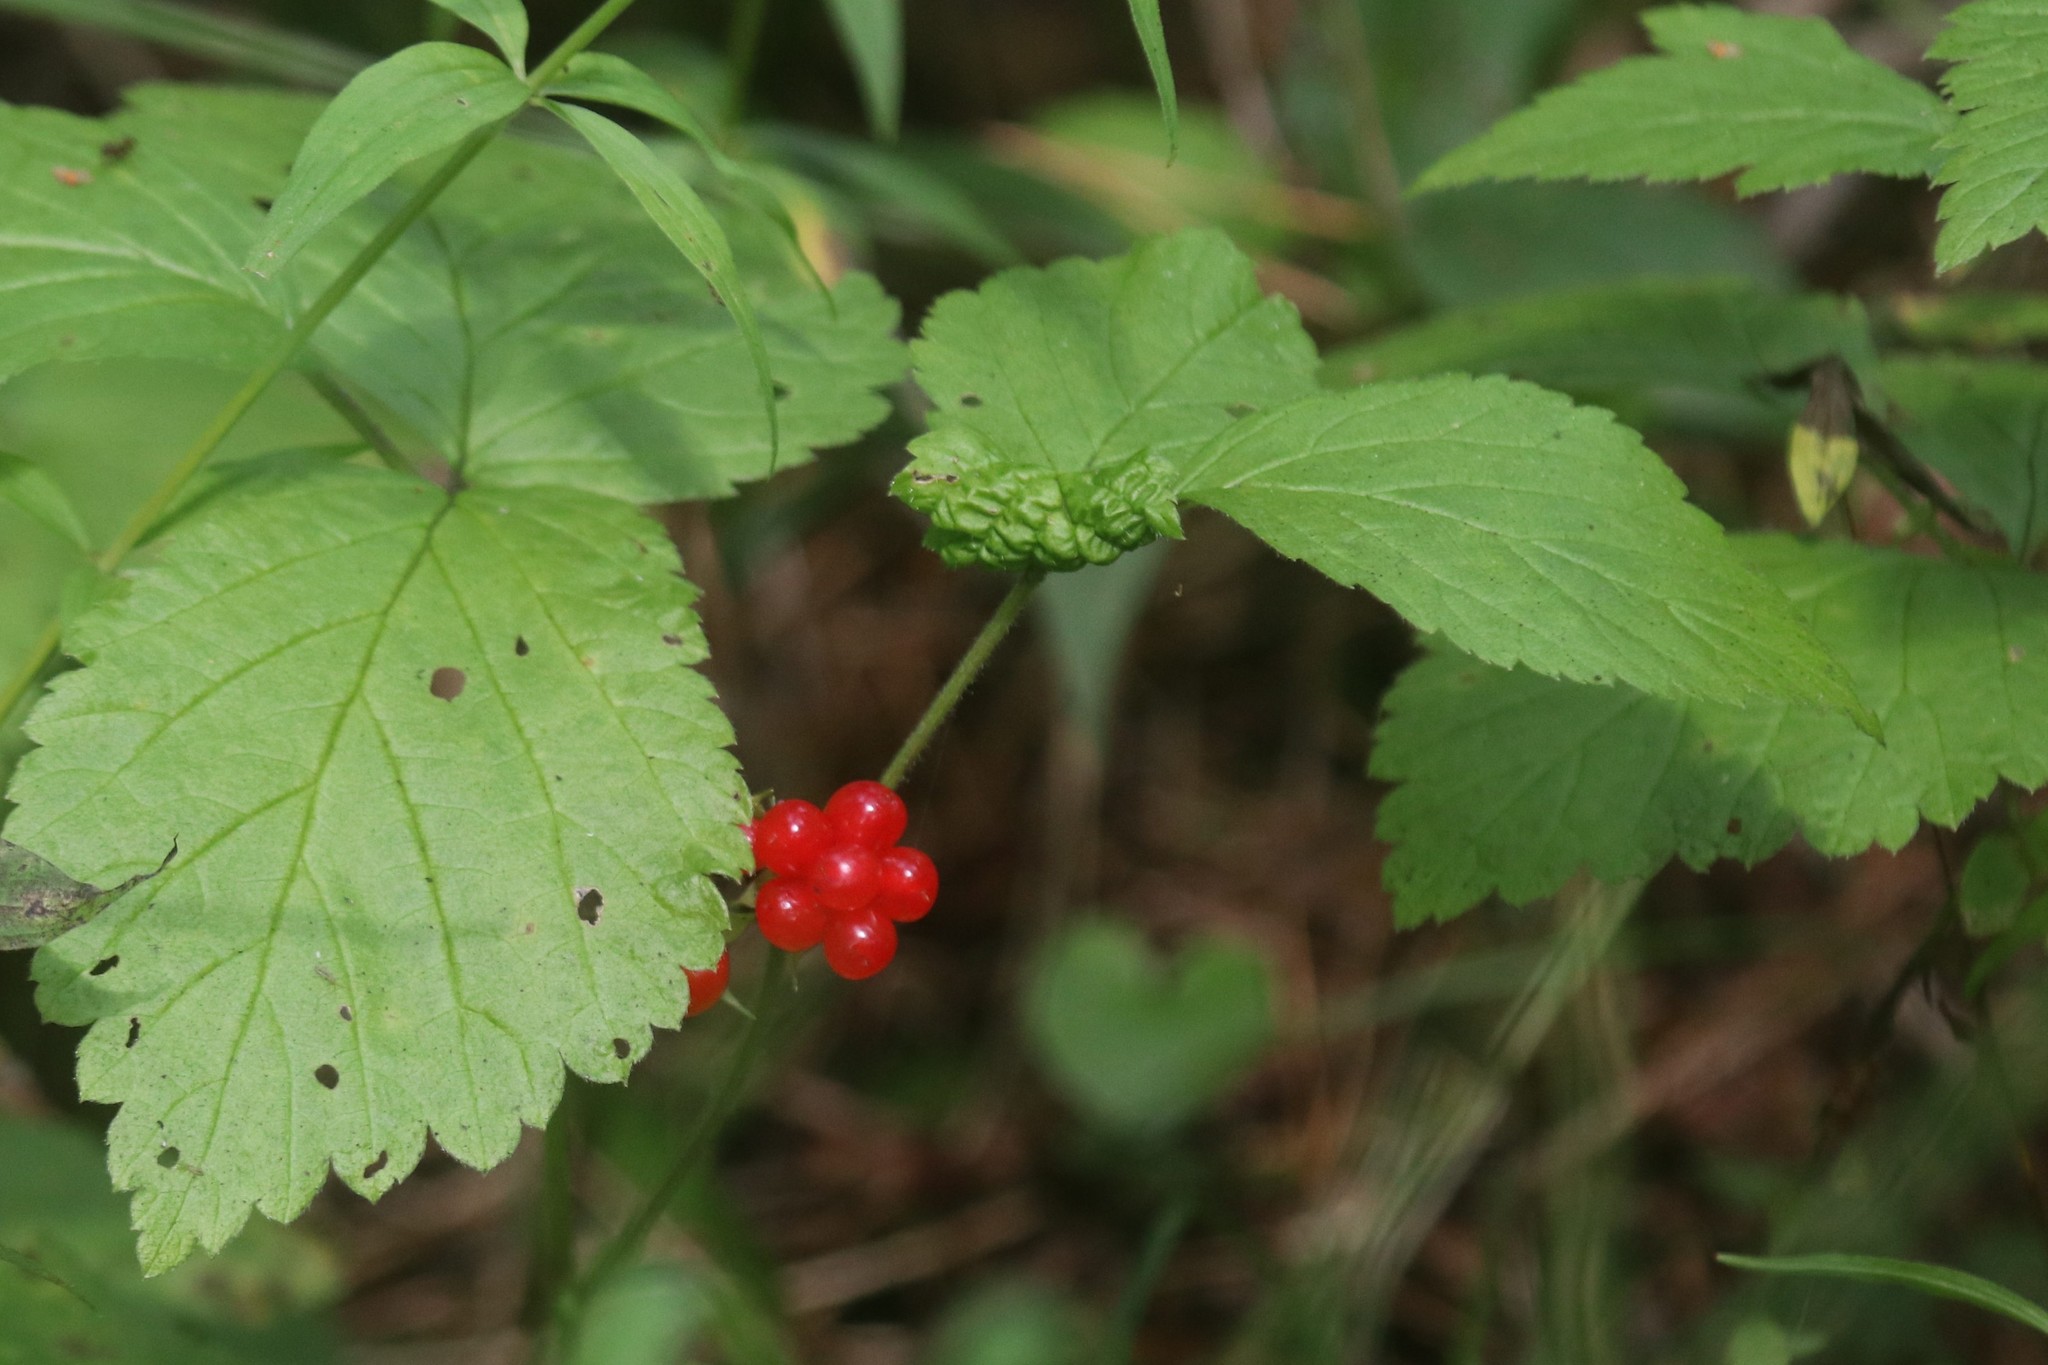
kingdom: Plantae
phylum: Tracheophyta
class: Magnoliopsida
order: Rosales
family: Rosaceae
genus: Rubus
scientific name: Rubus saxatilis
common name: Stone bramble
